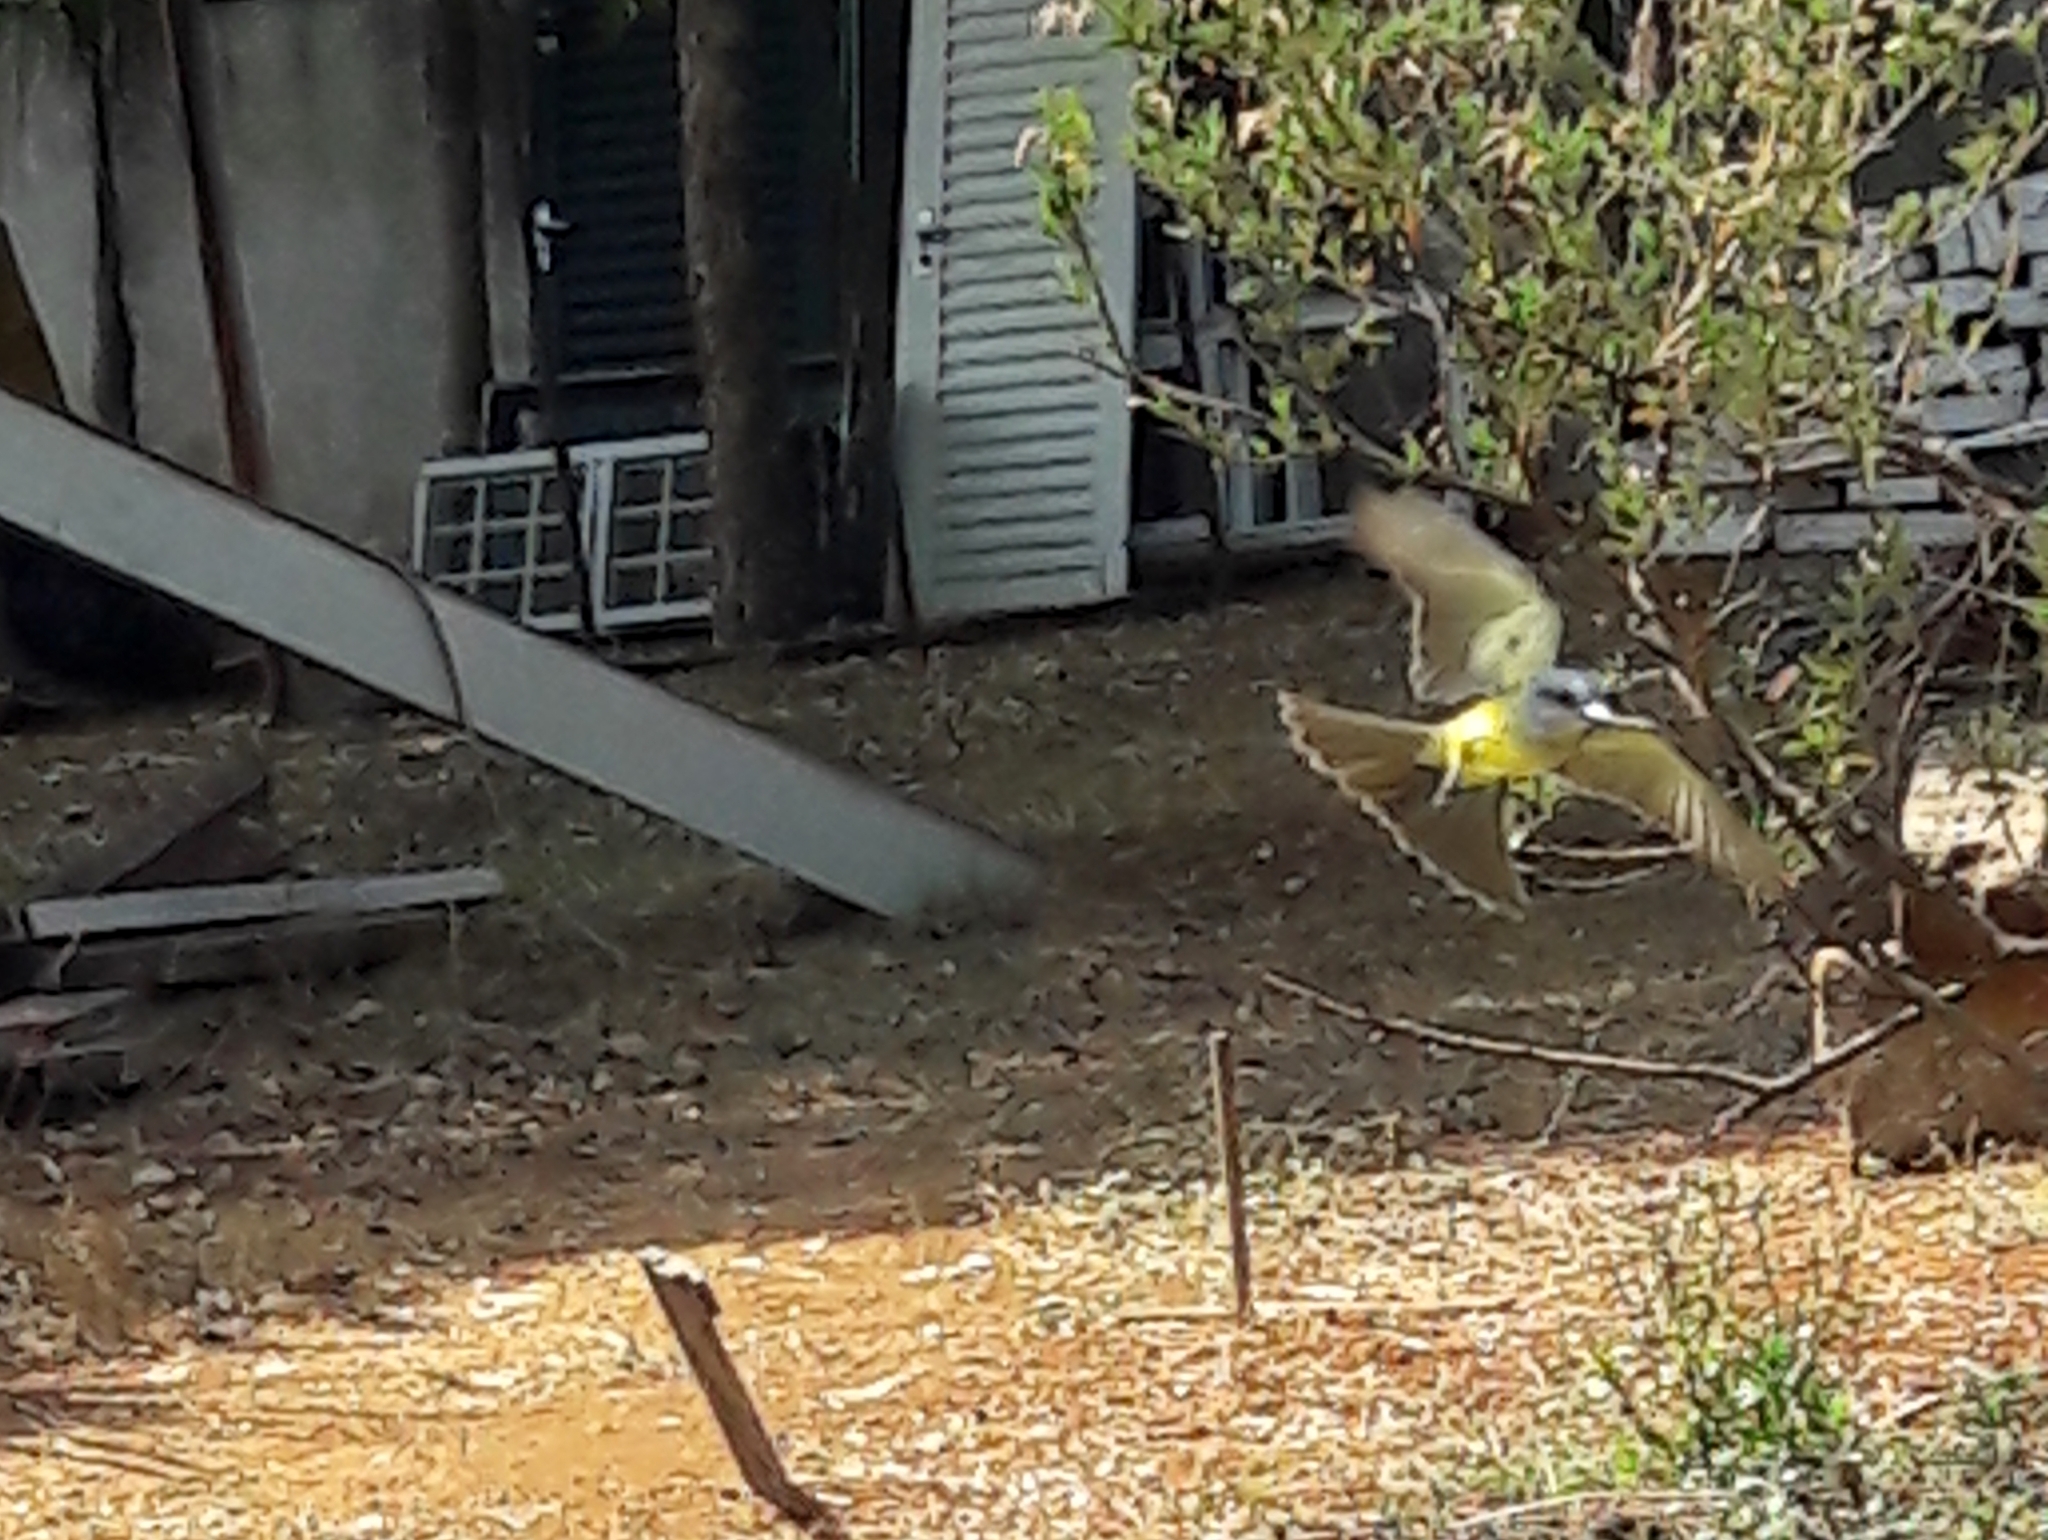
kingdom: Animalia
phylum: Chordata
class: Aves
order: Passeriformes
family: Tyrannidae
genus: Tyrannus
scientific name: Tyrannus melancholicus
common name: Tropical kingbird
